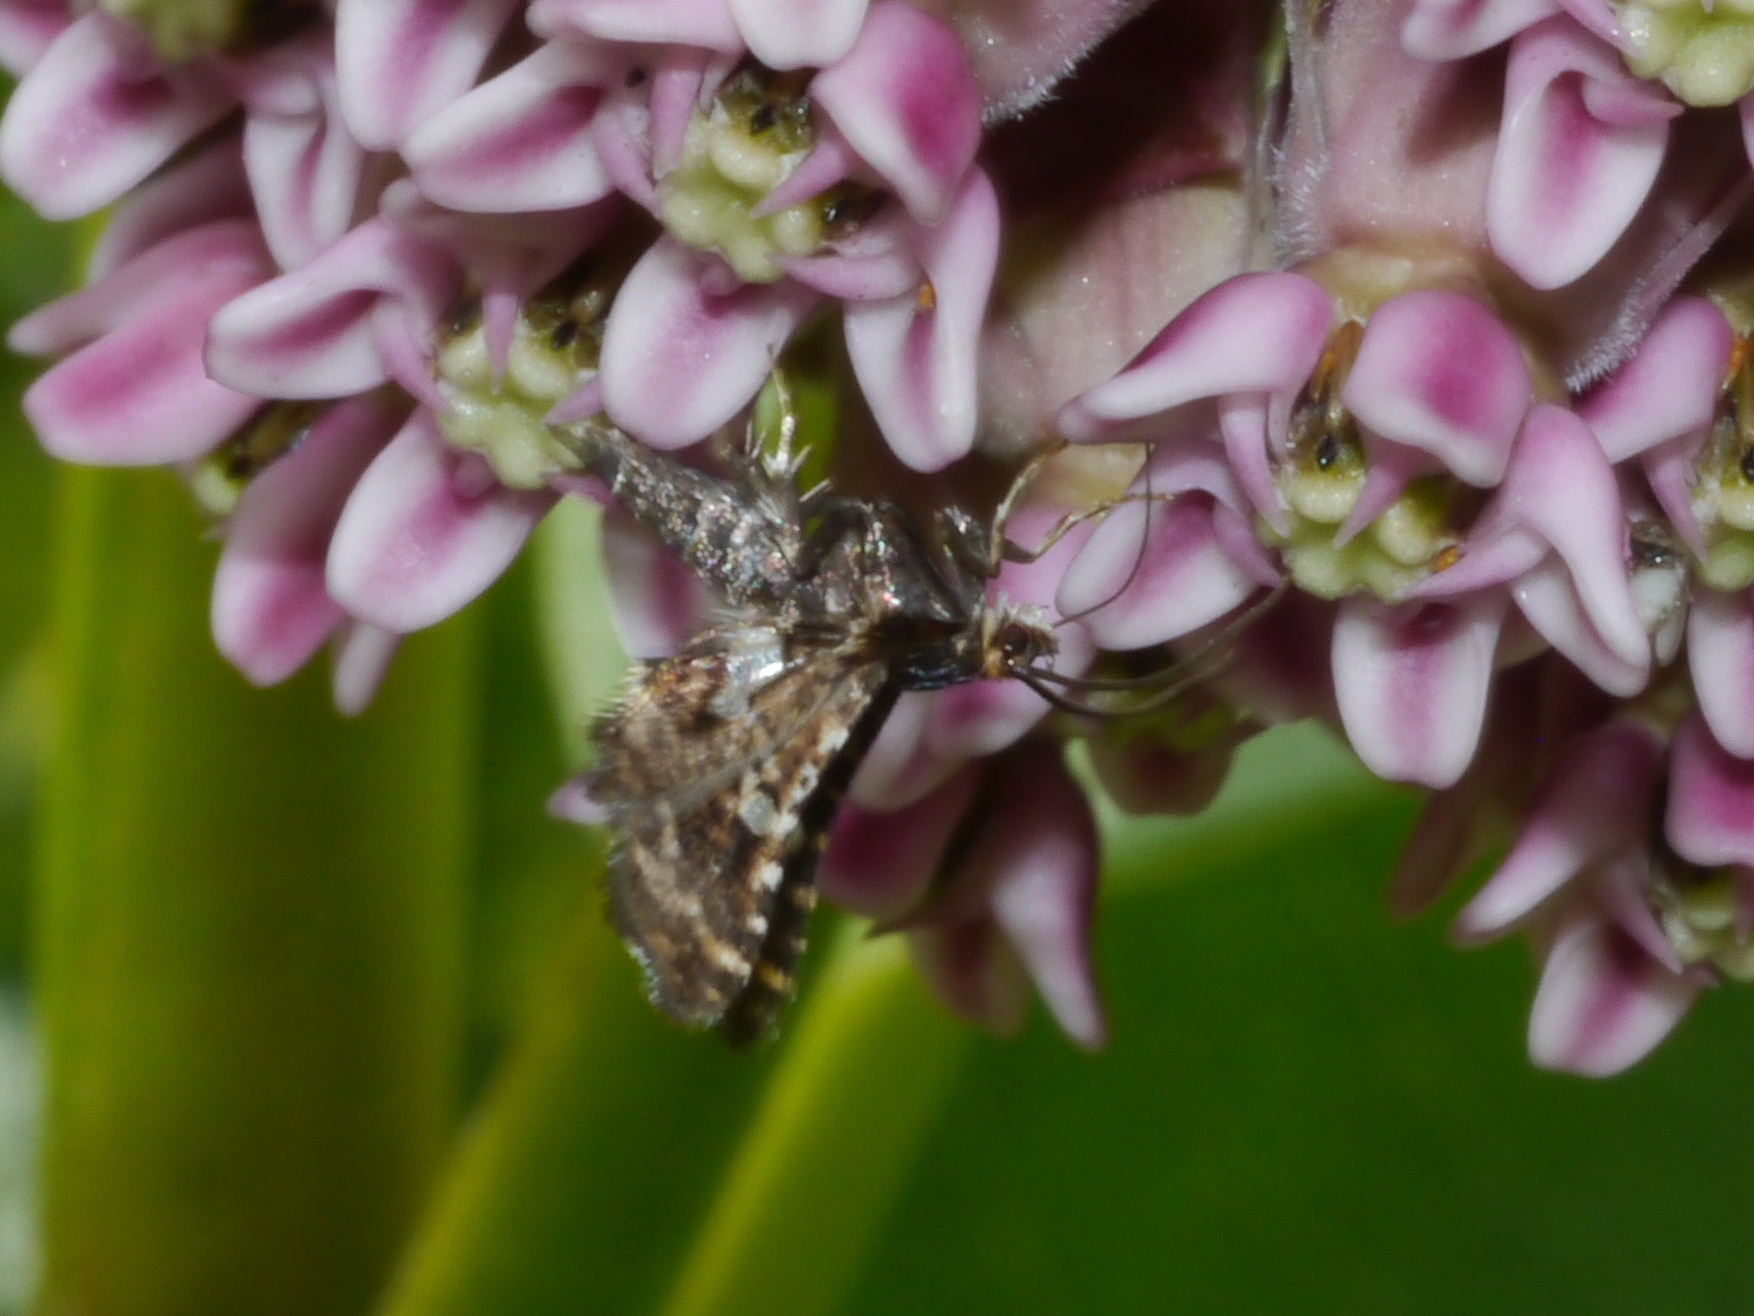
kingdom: Animalia
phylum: Arthropoda
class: Insecta
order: Lepidoptera
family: Thyrididae
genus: Thyris
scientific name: Thyris maculata
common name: Spotted thyris moth
